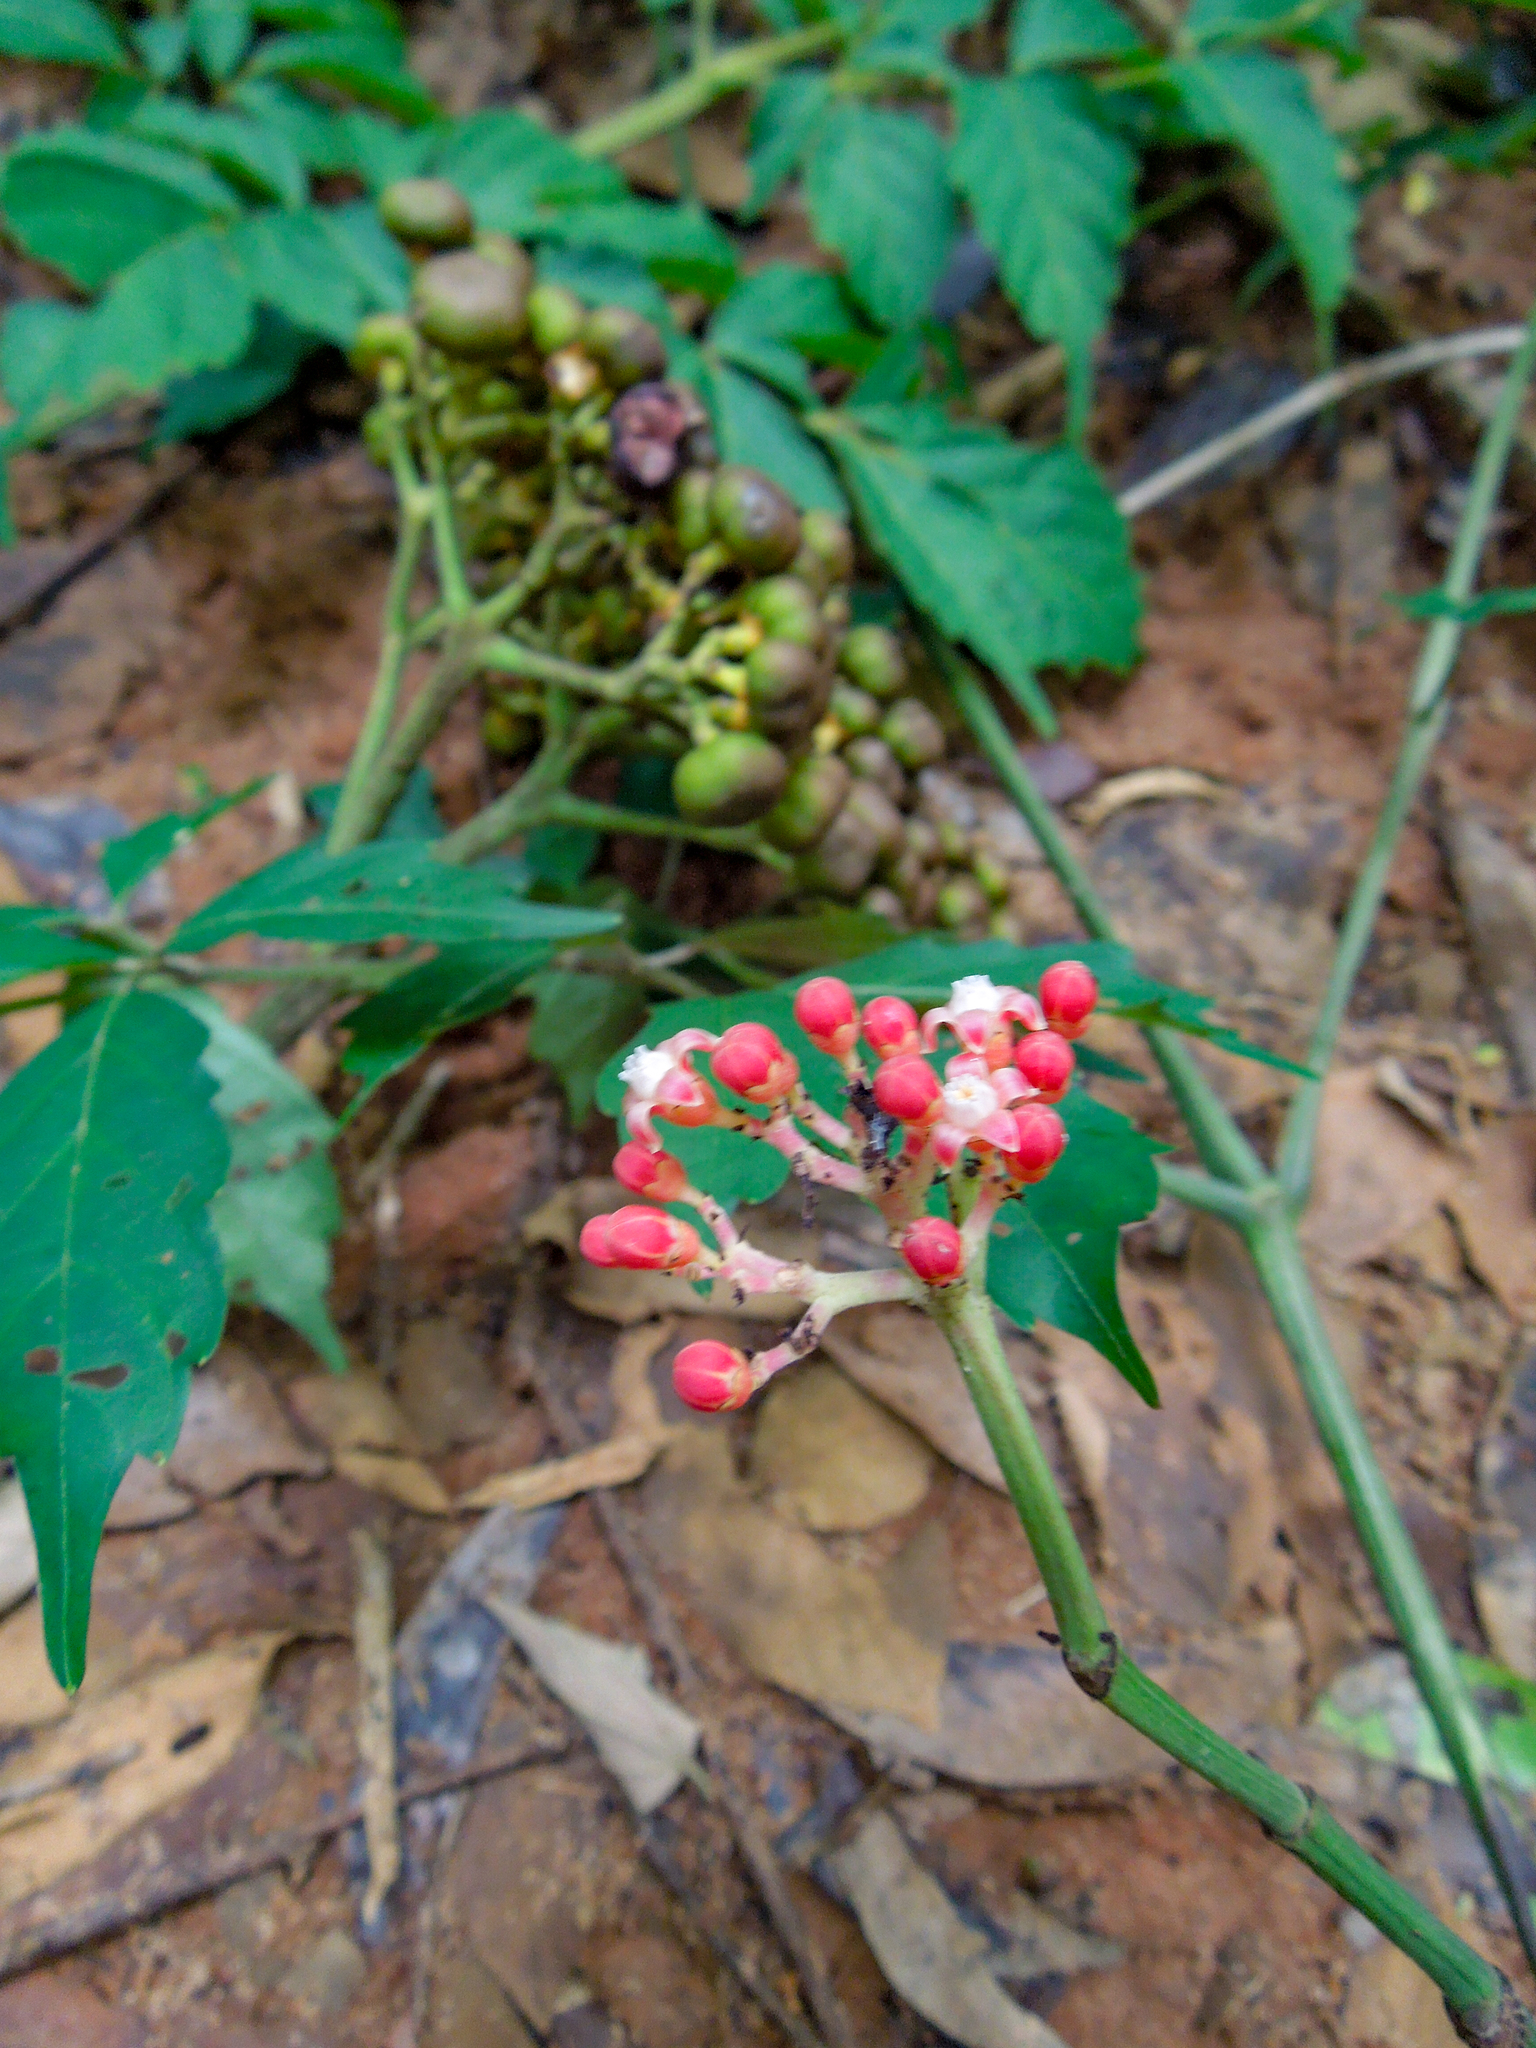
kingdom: Plantae
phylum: Tracheophyta
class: Magnoliopsida
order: Vitales
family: Vitaceae
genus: Leea
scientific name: Leea guineensis
